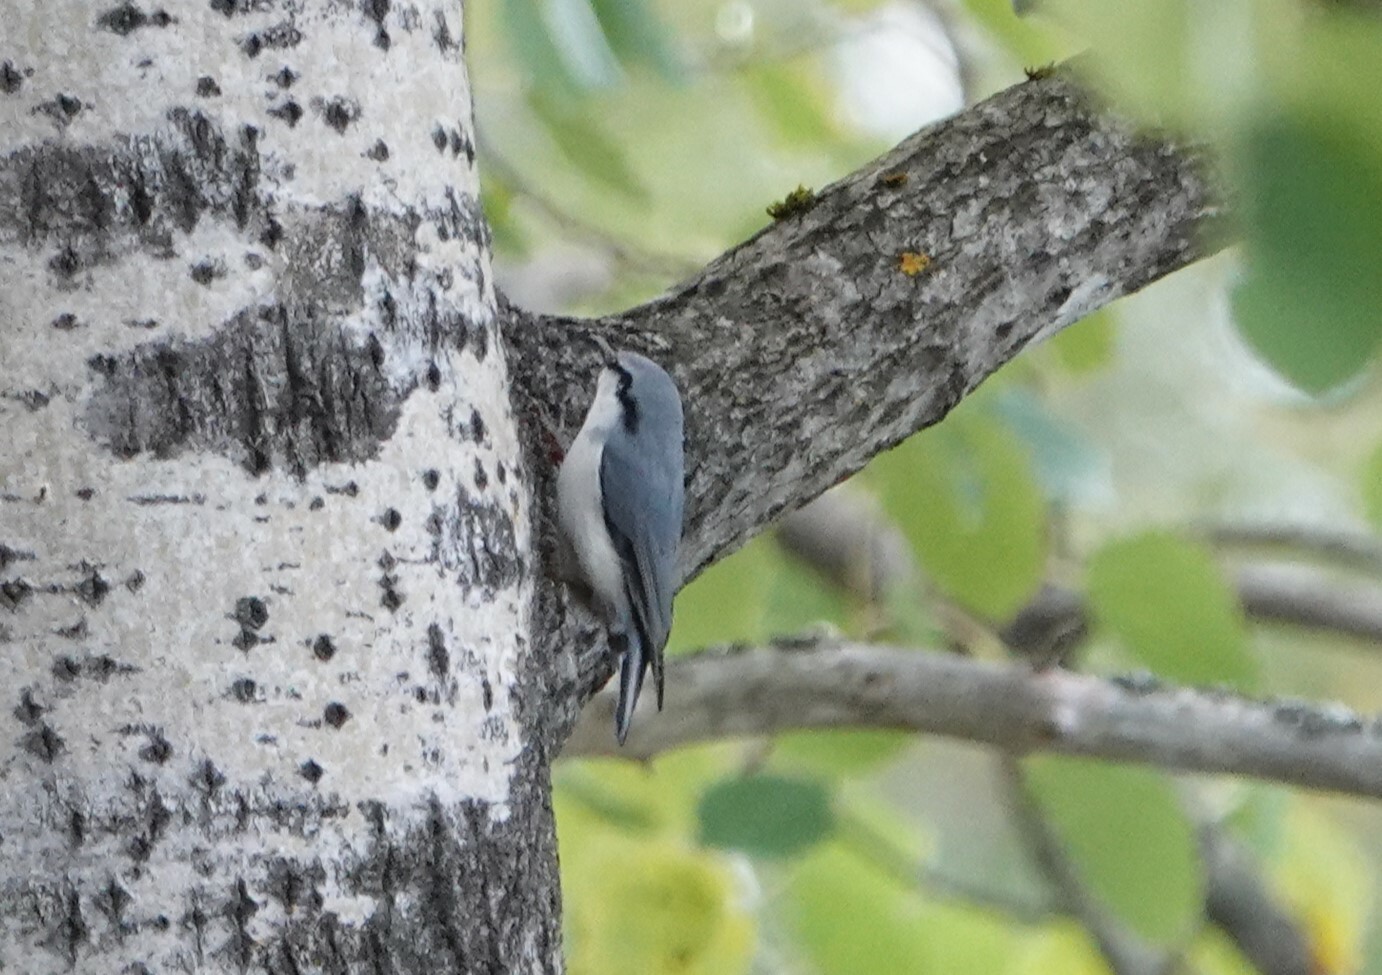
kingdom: Animalia
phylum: Chordata
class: Aves
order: Passeriformes
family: Sittidae
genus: Sitta
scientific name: Sitta europaea
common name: Eurasian nuthatch
